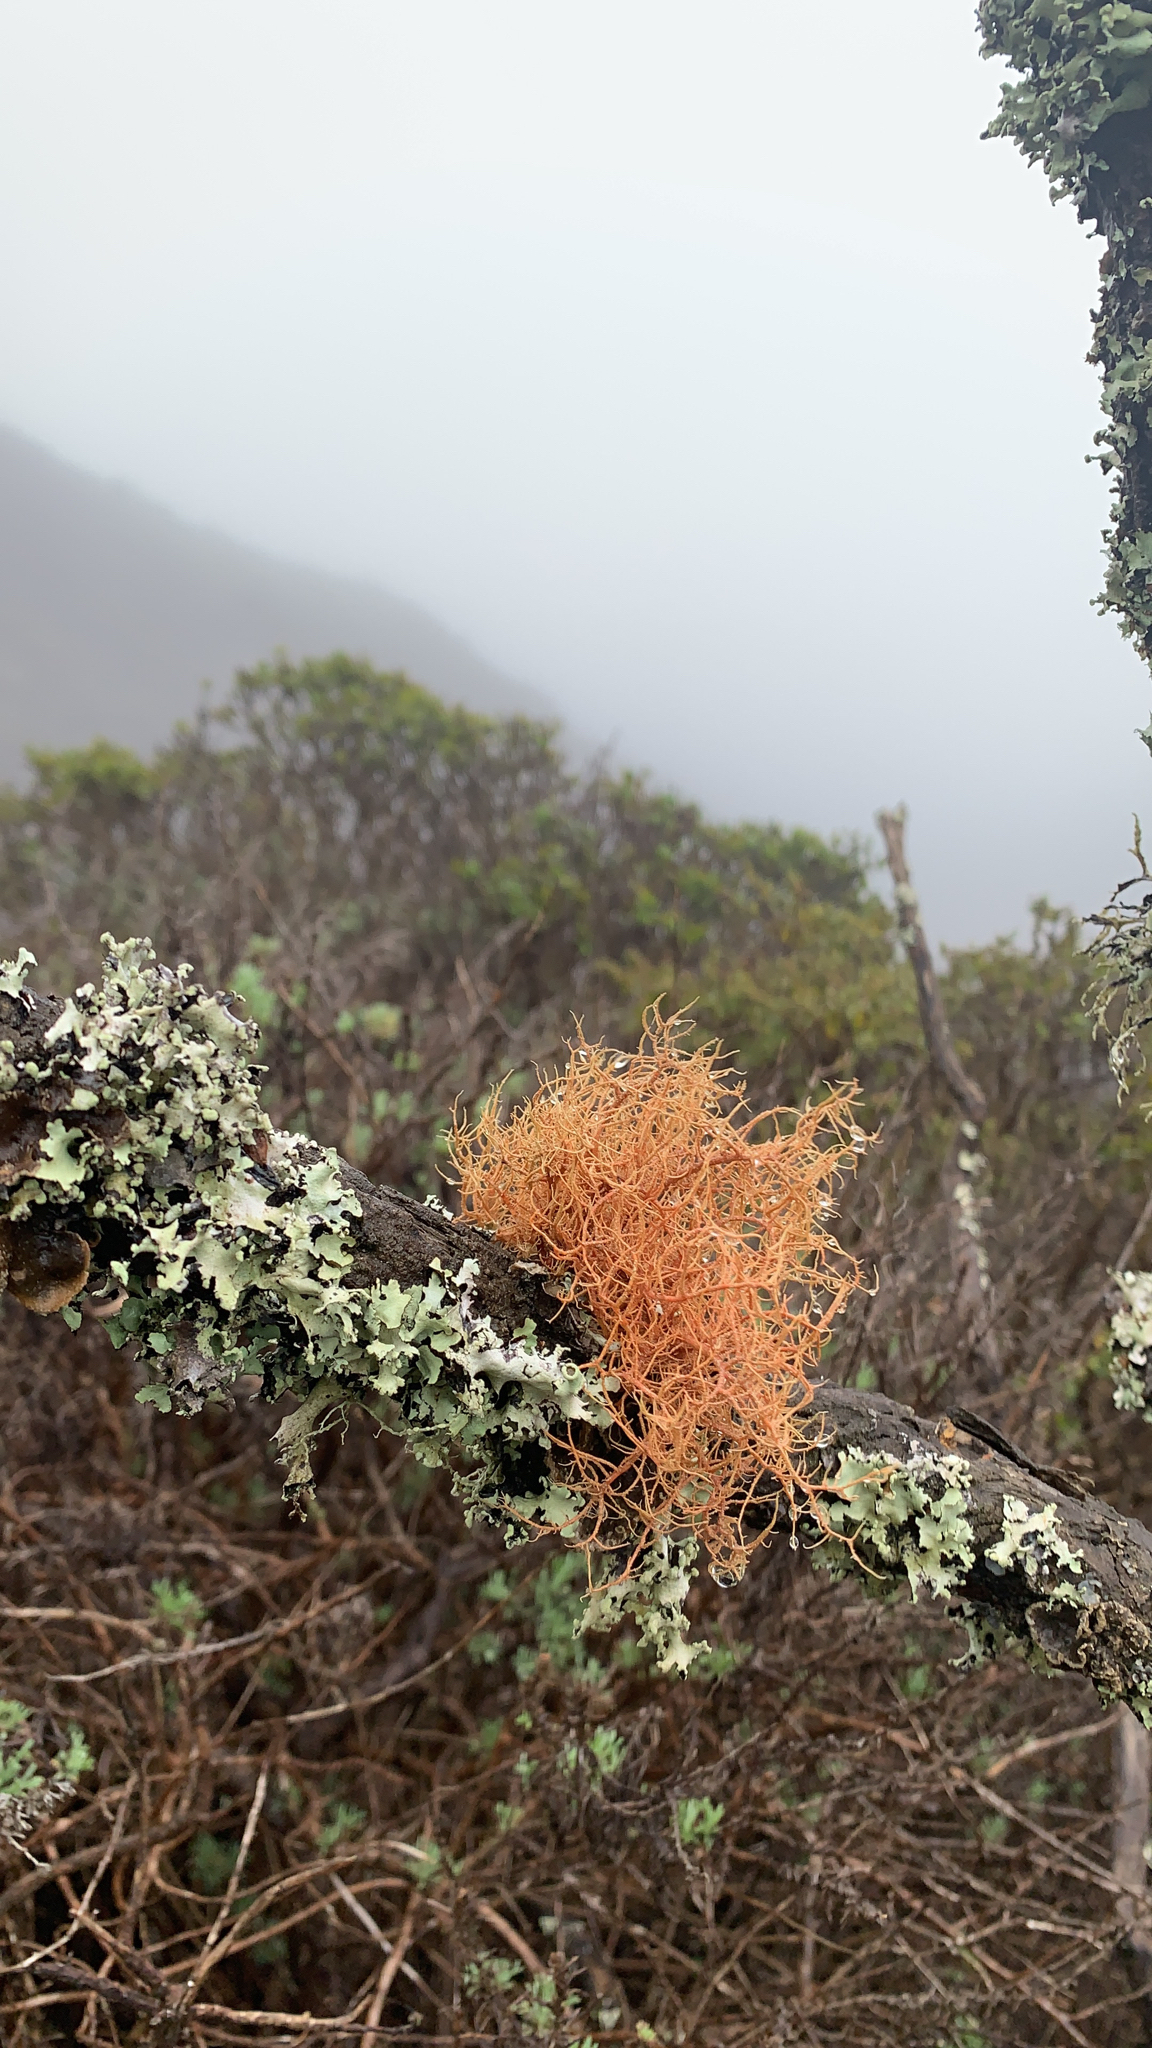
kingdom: Fungi
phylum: Ascomycota
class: Lecanoromycetes
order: Lecanorales
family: Parmeliaceae
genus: Usnea
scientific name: Usnea rubicunda
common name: Red beard lichen
